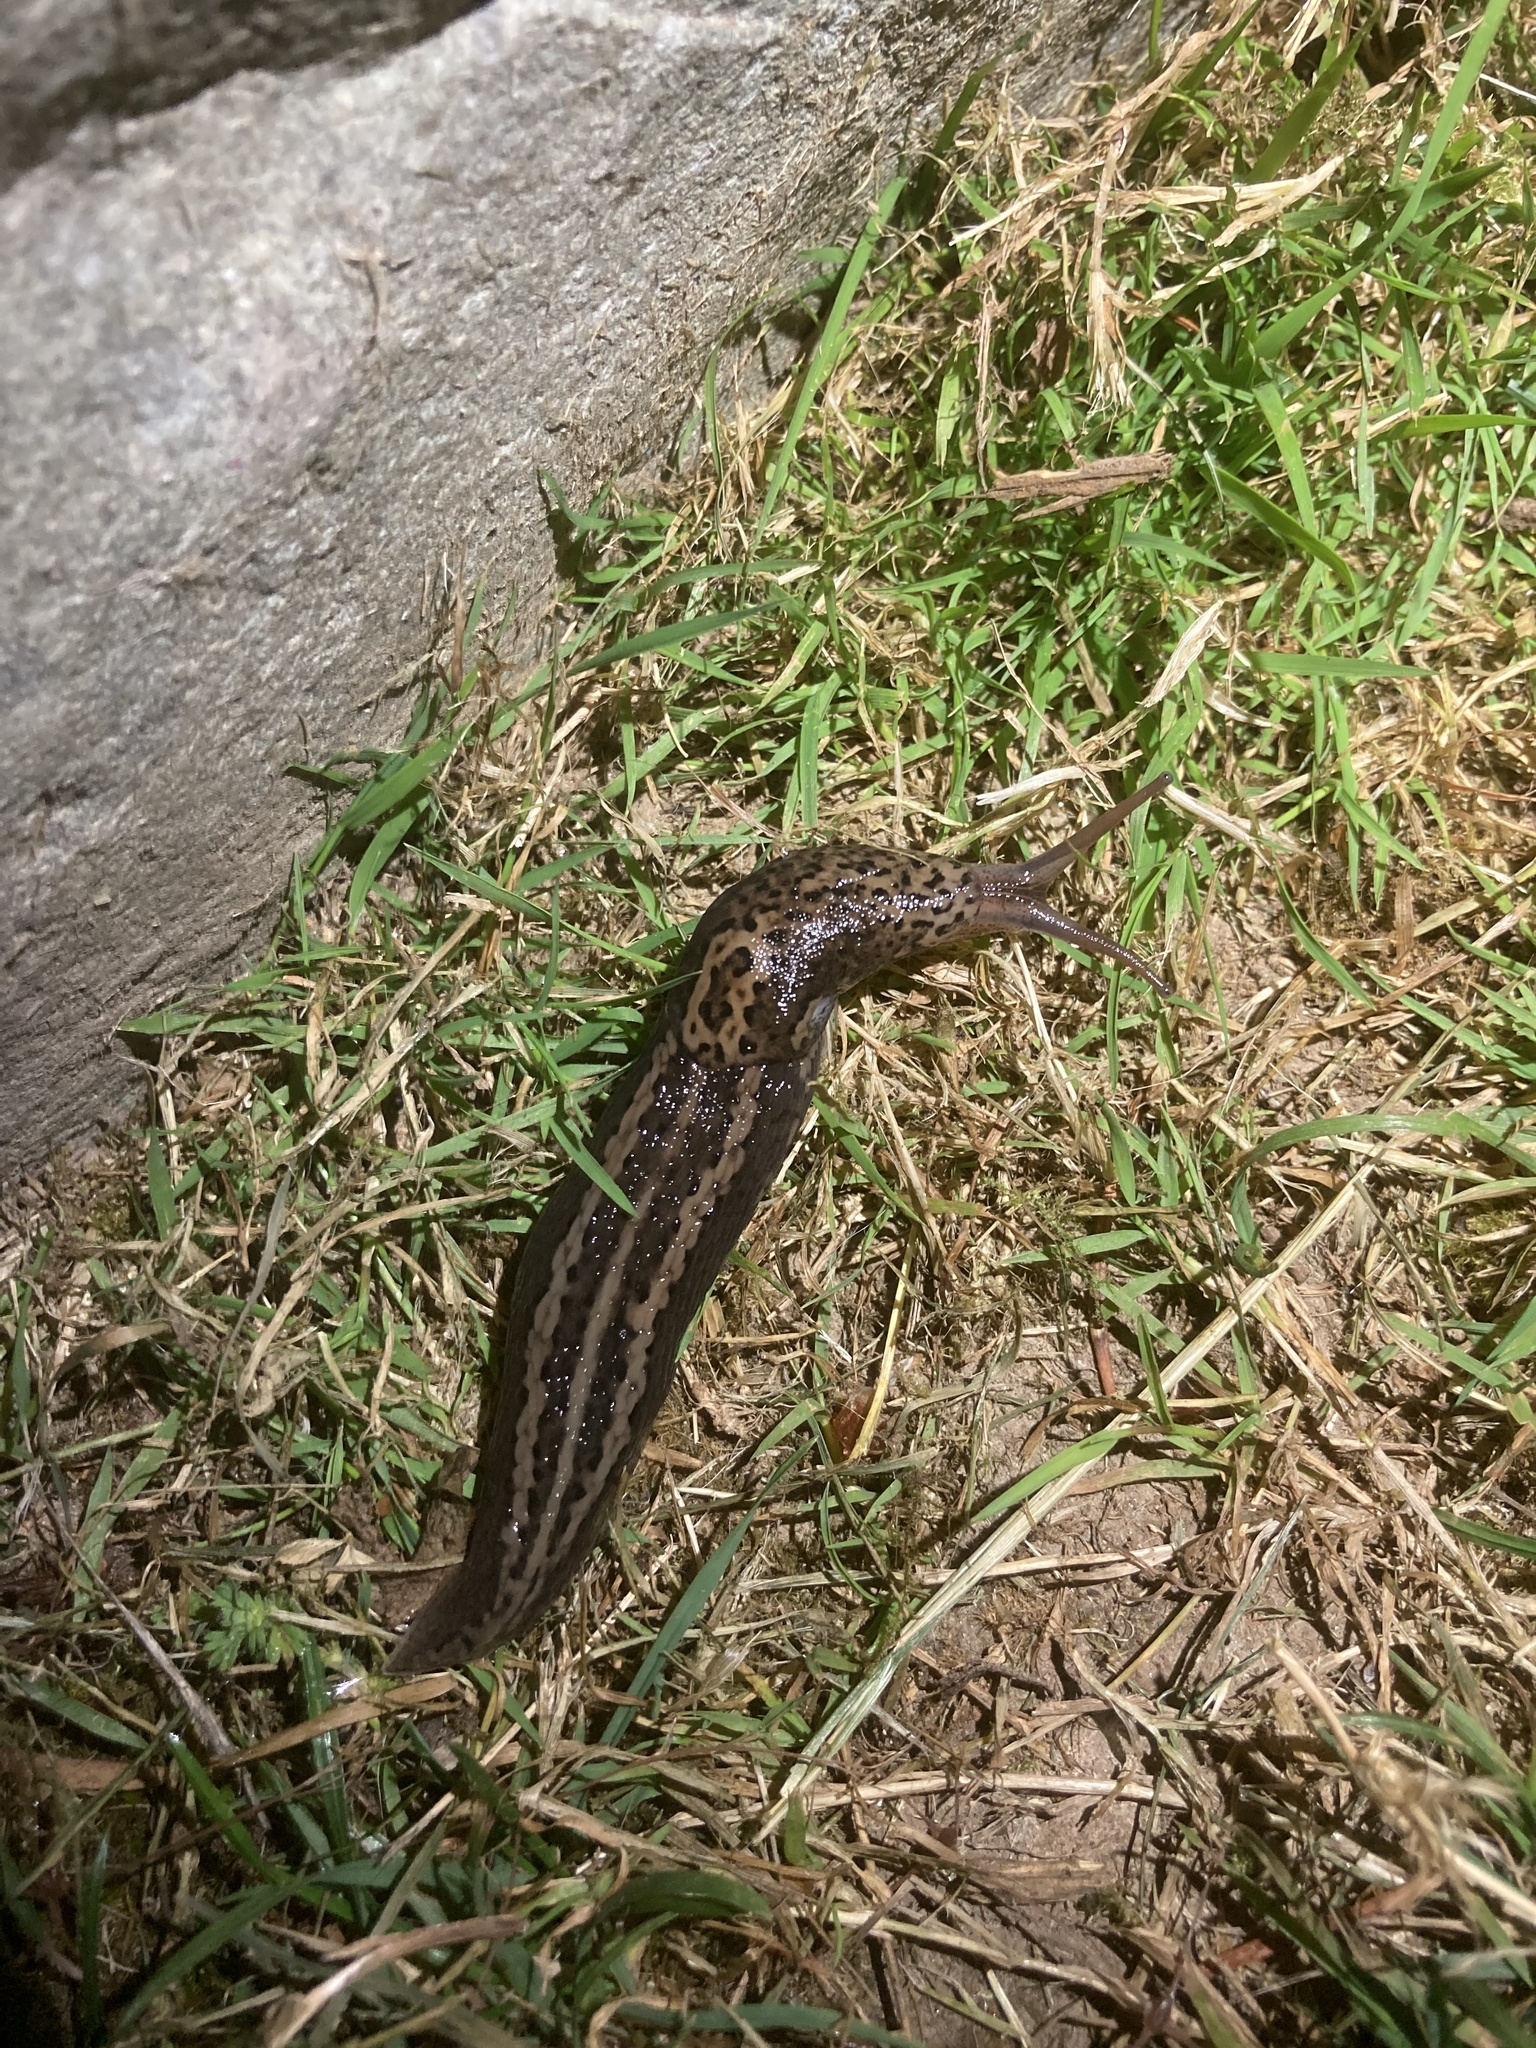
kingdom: Animalia
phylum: Mollusca
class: Gastropoda
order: Stylommatophora
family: Limacidae
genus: Limax
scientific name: Limax maximus
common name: Great grey slug
